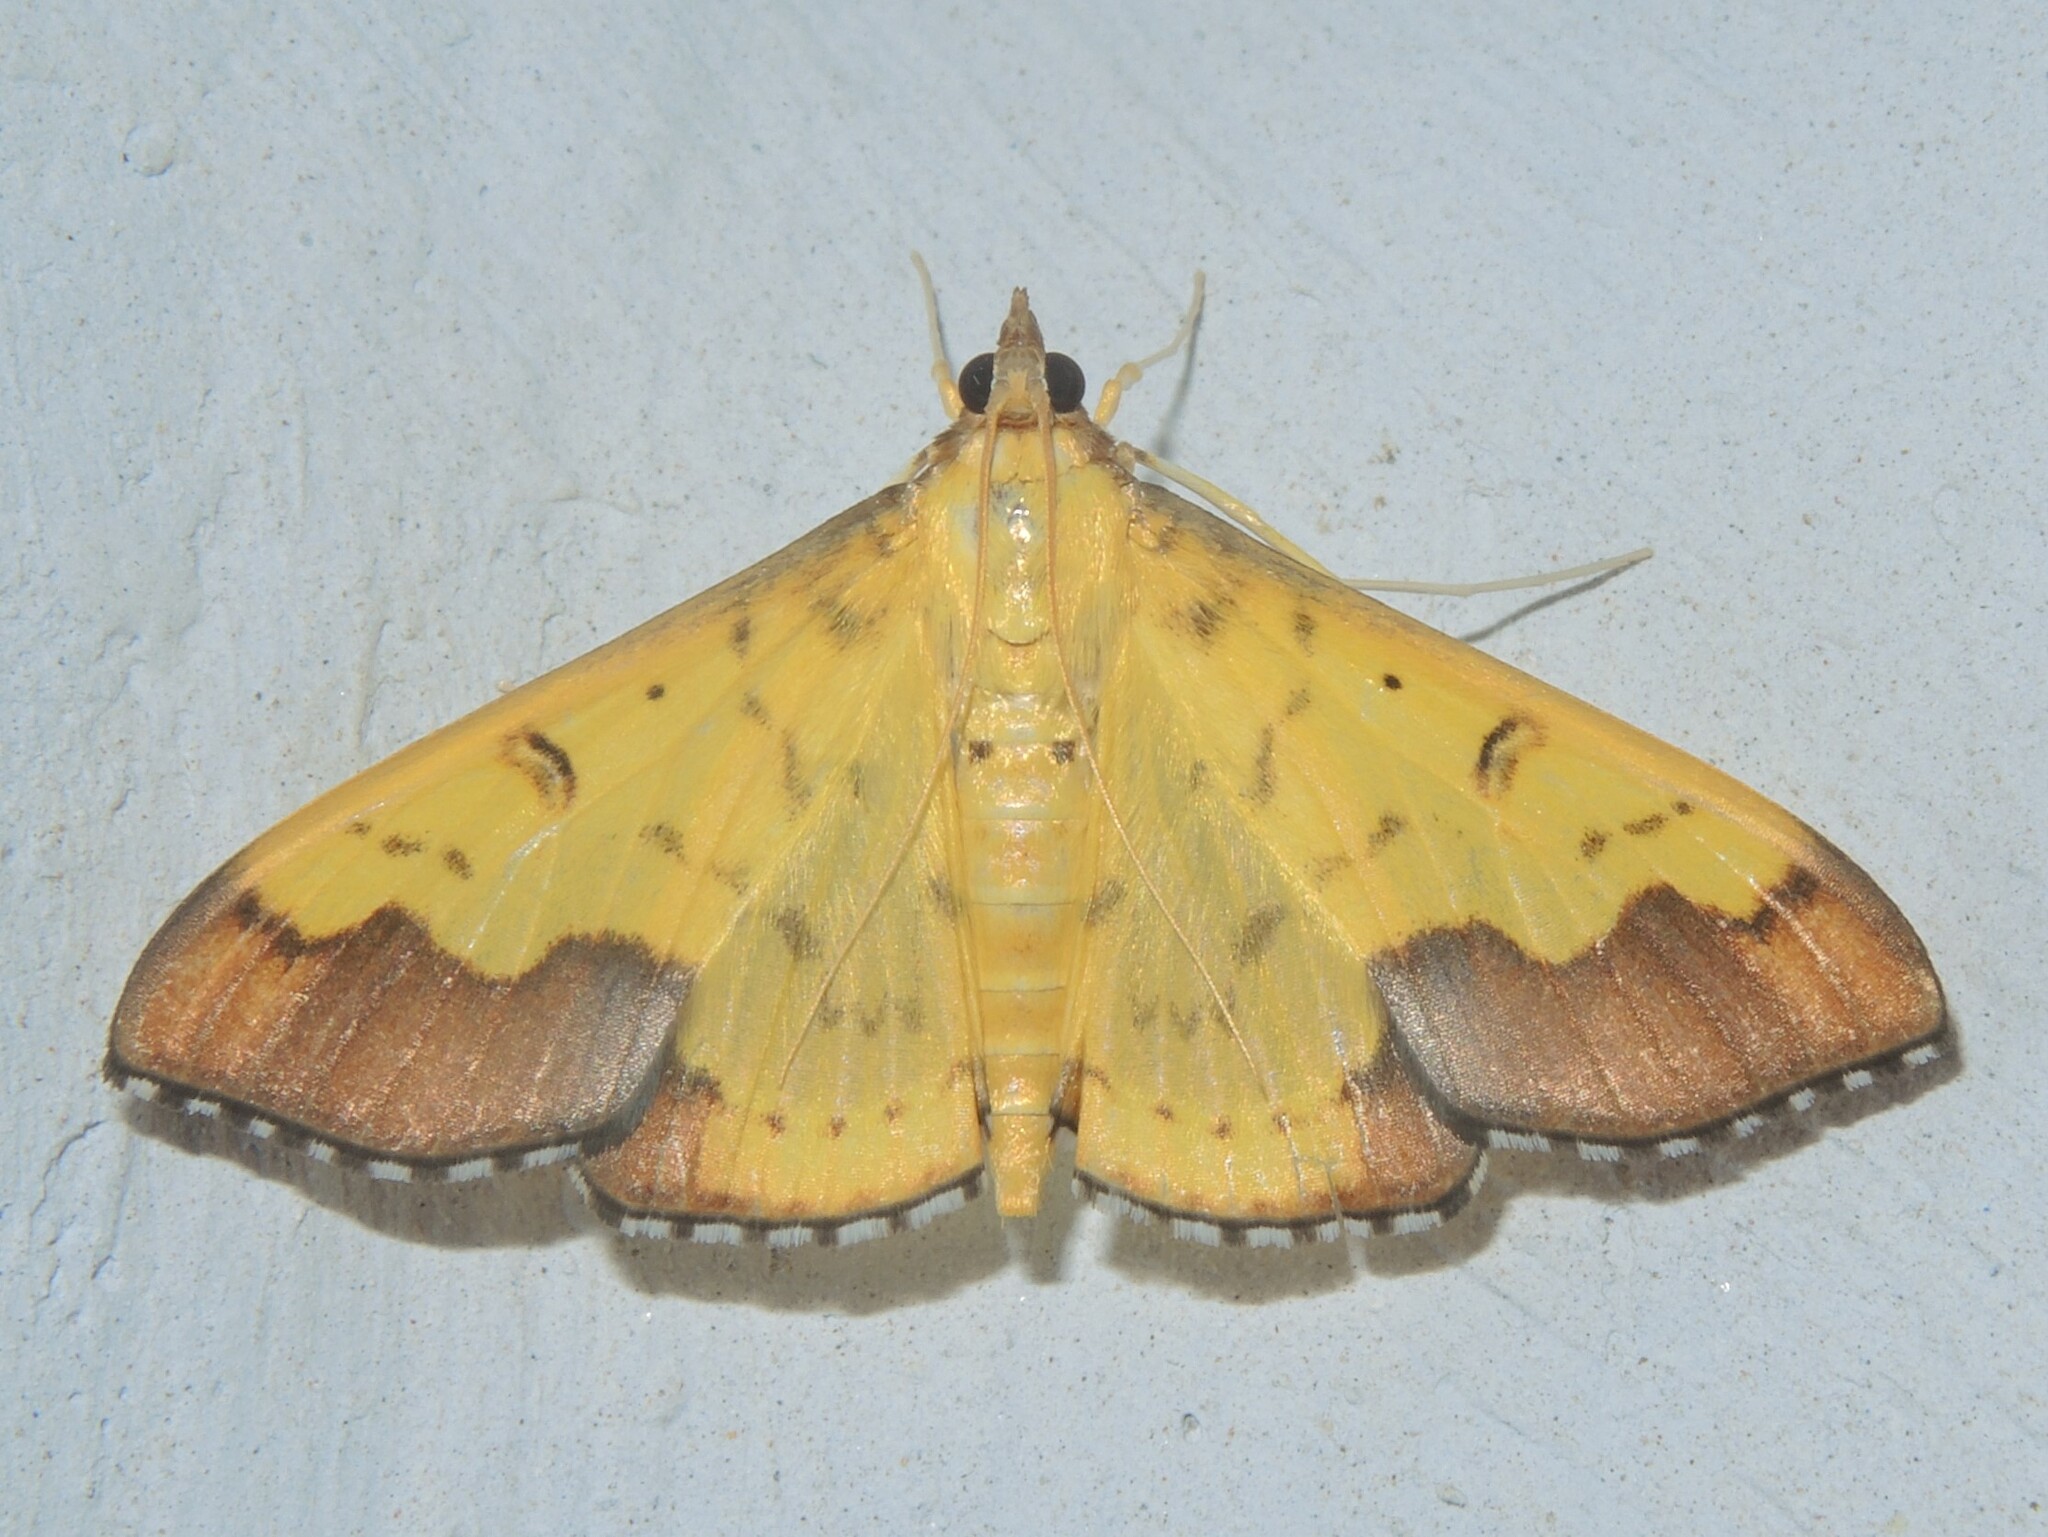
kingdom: Animalia
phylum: Arthropoda
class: Insecta
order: Lepidoptera
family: Crambidae
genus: Meroctena
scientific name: Meroctena tullalis
